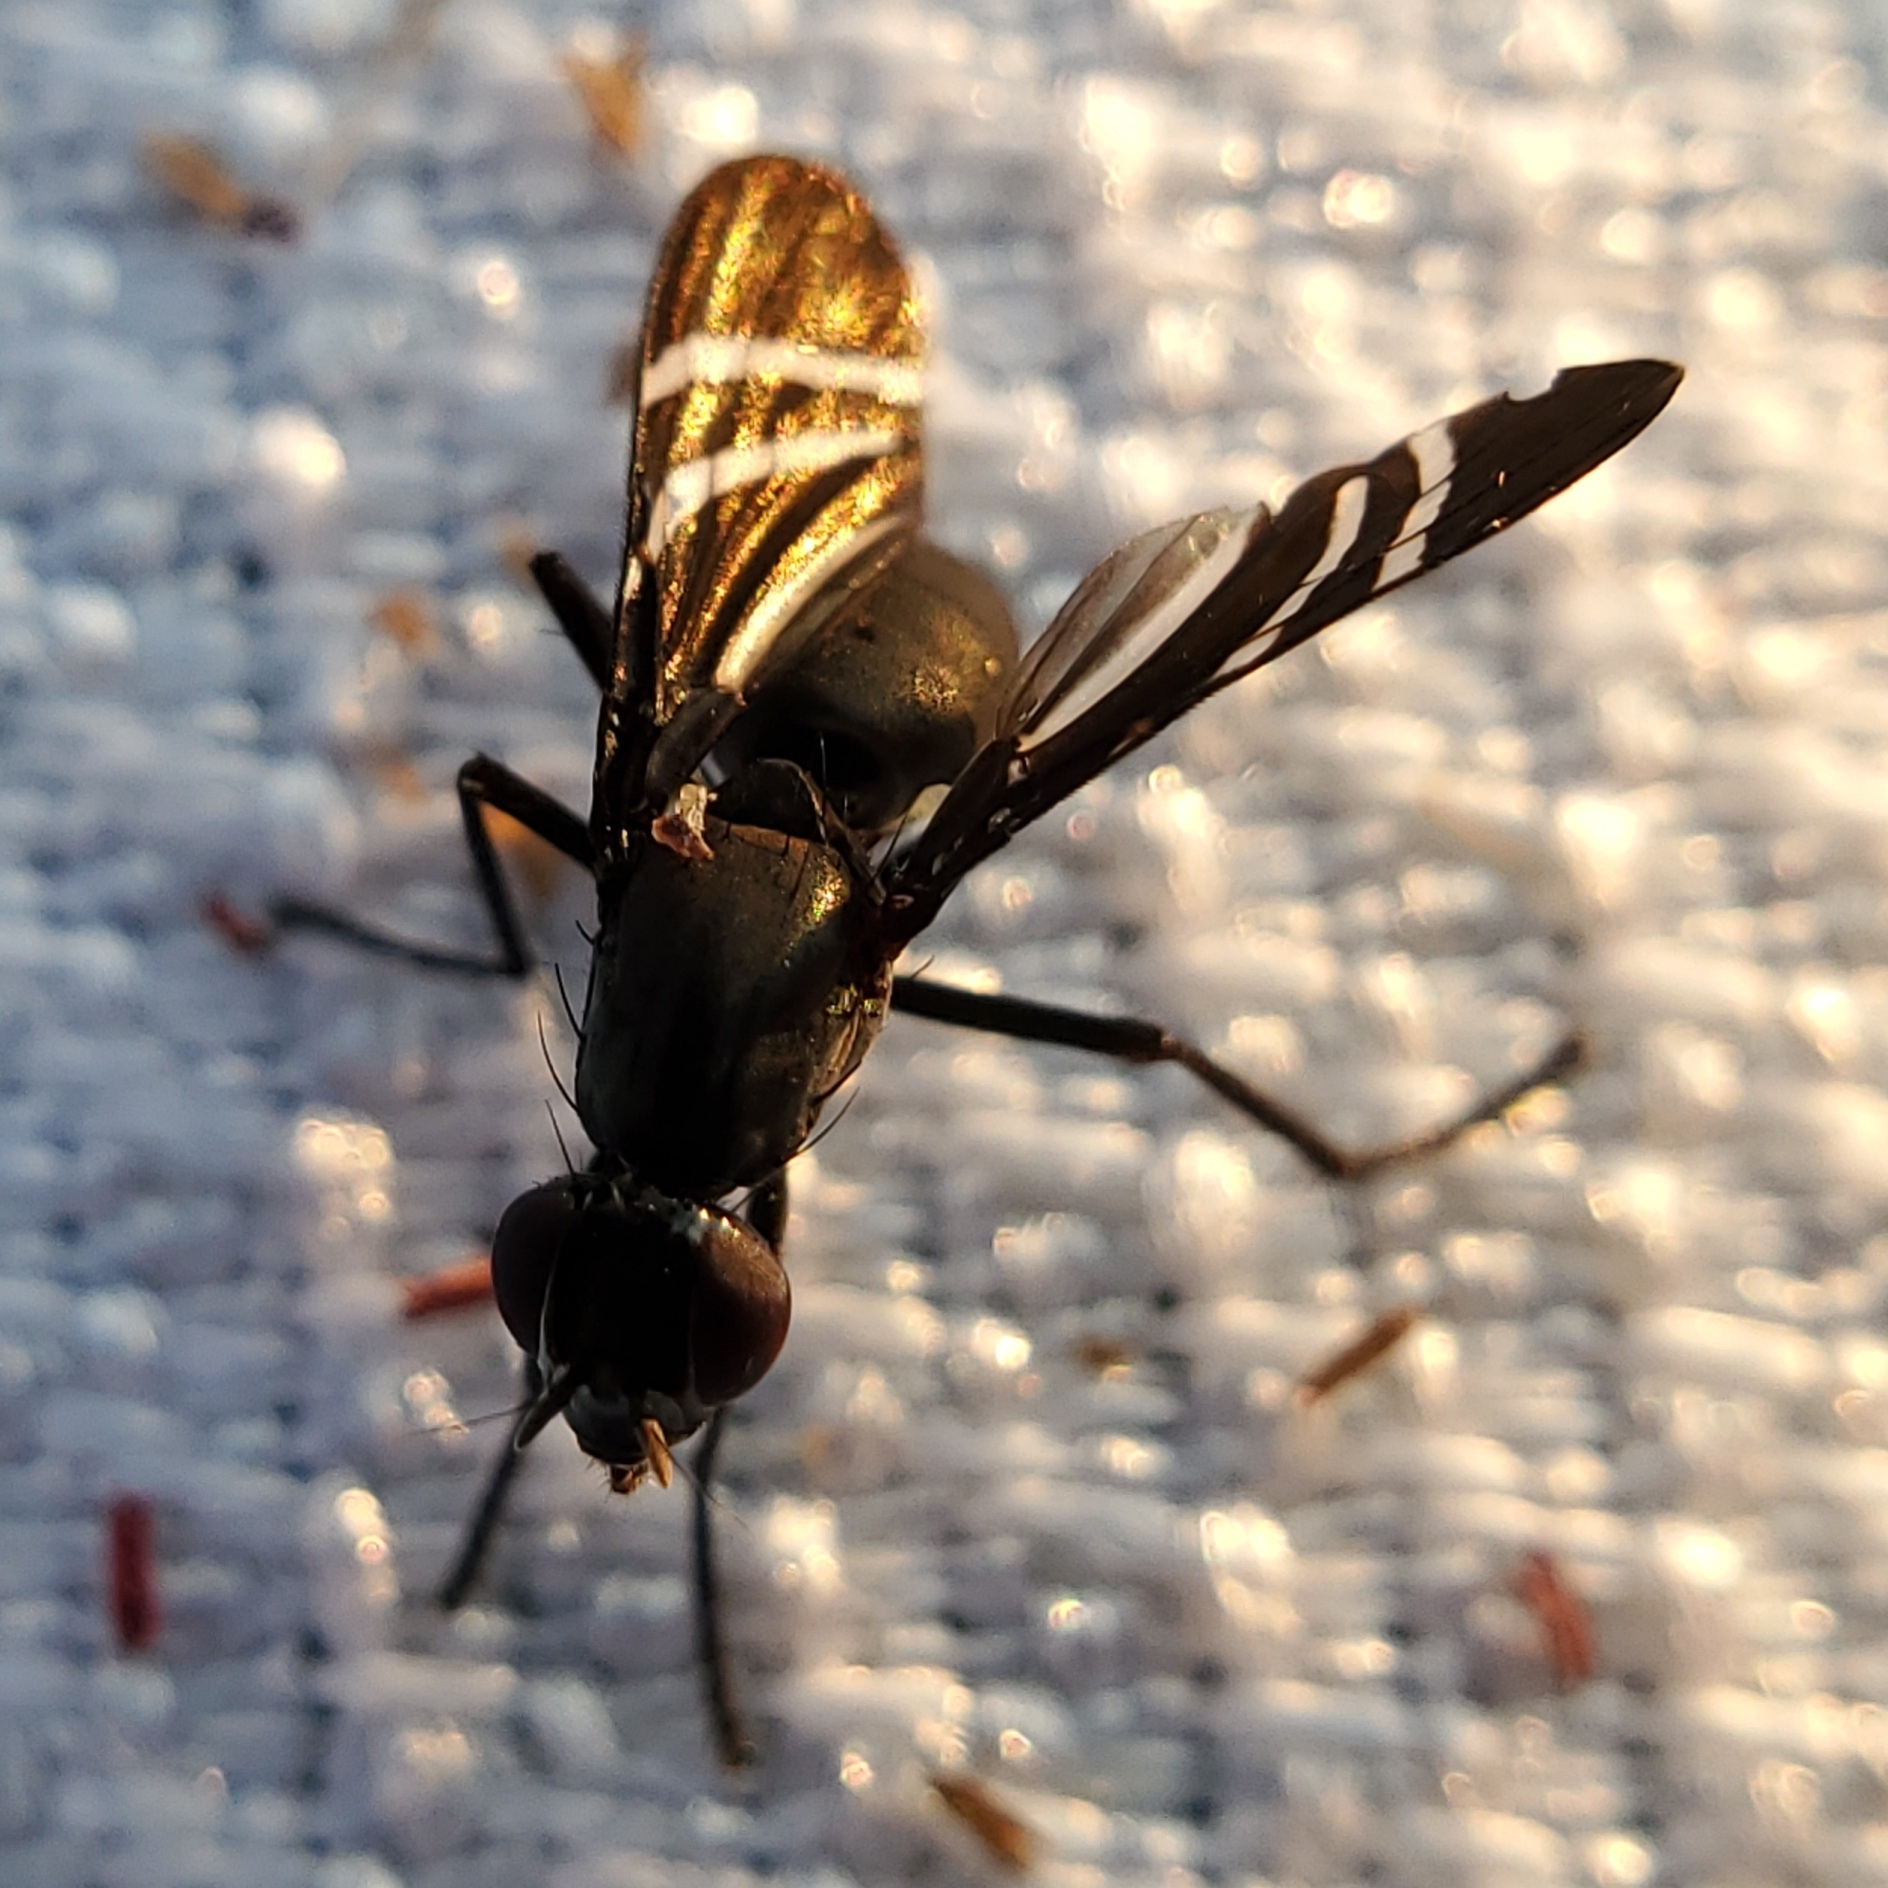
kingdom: Animalia
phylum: Arthropoda
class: Insecta
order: Diptera
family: Ulidiidae
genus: Tritoxa
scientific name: Tritoxa flexa
